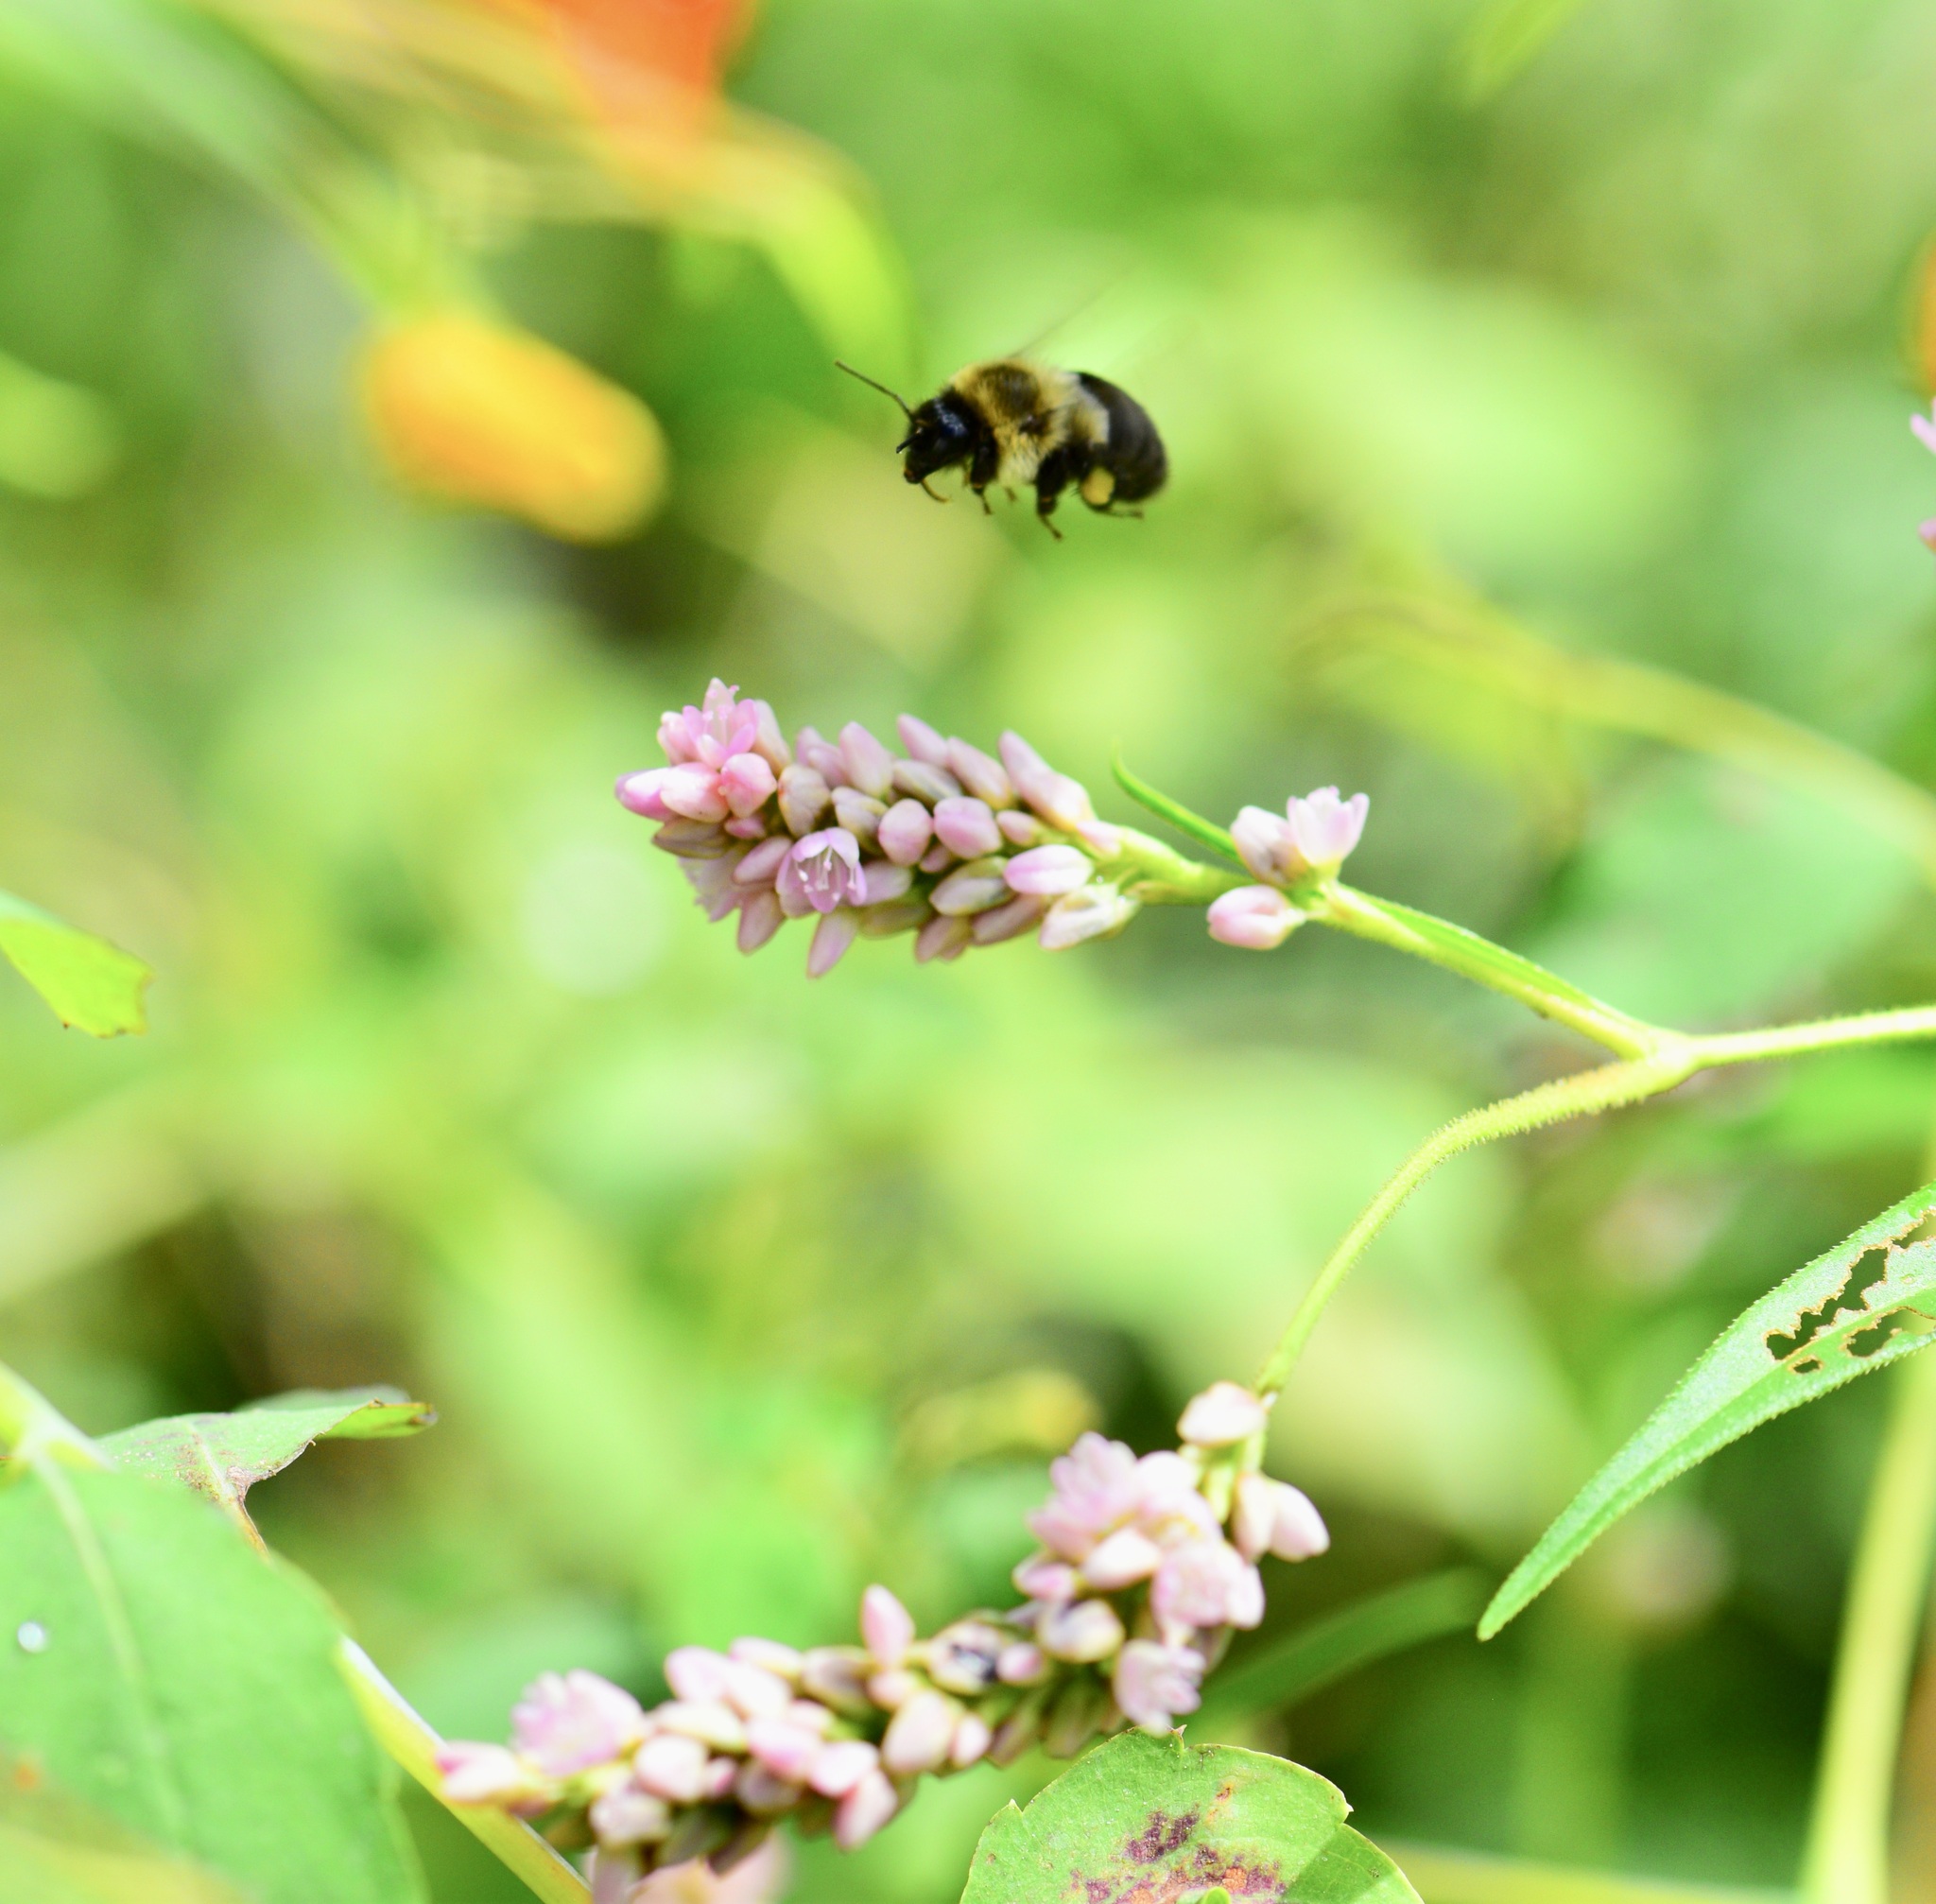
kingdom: Animalia
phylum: Arthropoda
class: Insecta
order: Hymenoptera
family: Apidae
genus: Bombus
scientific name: Bombus impatiens
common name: Common eastern bumble bee
